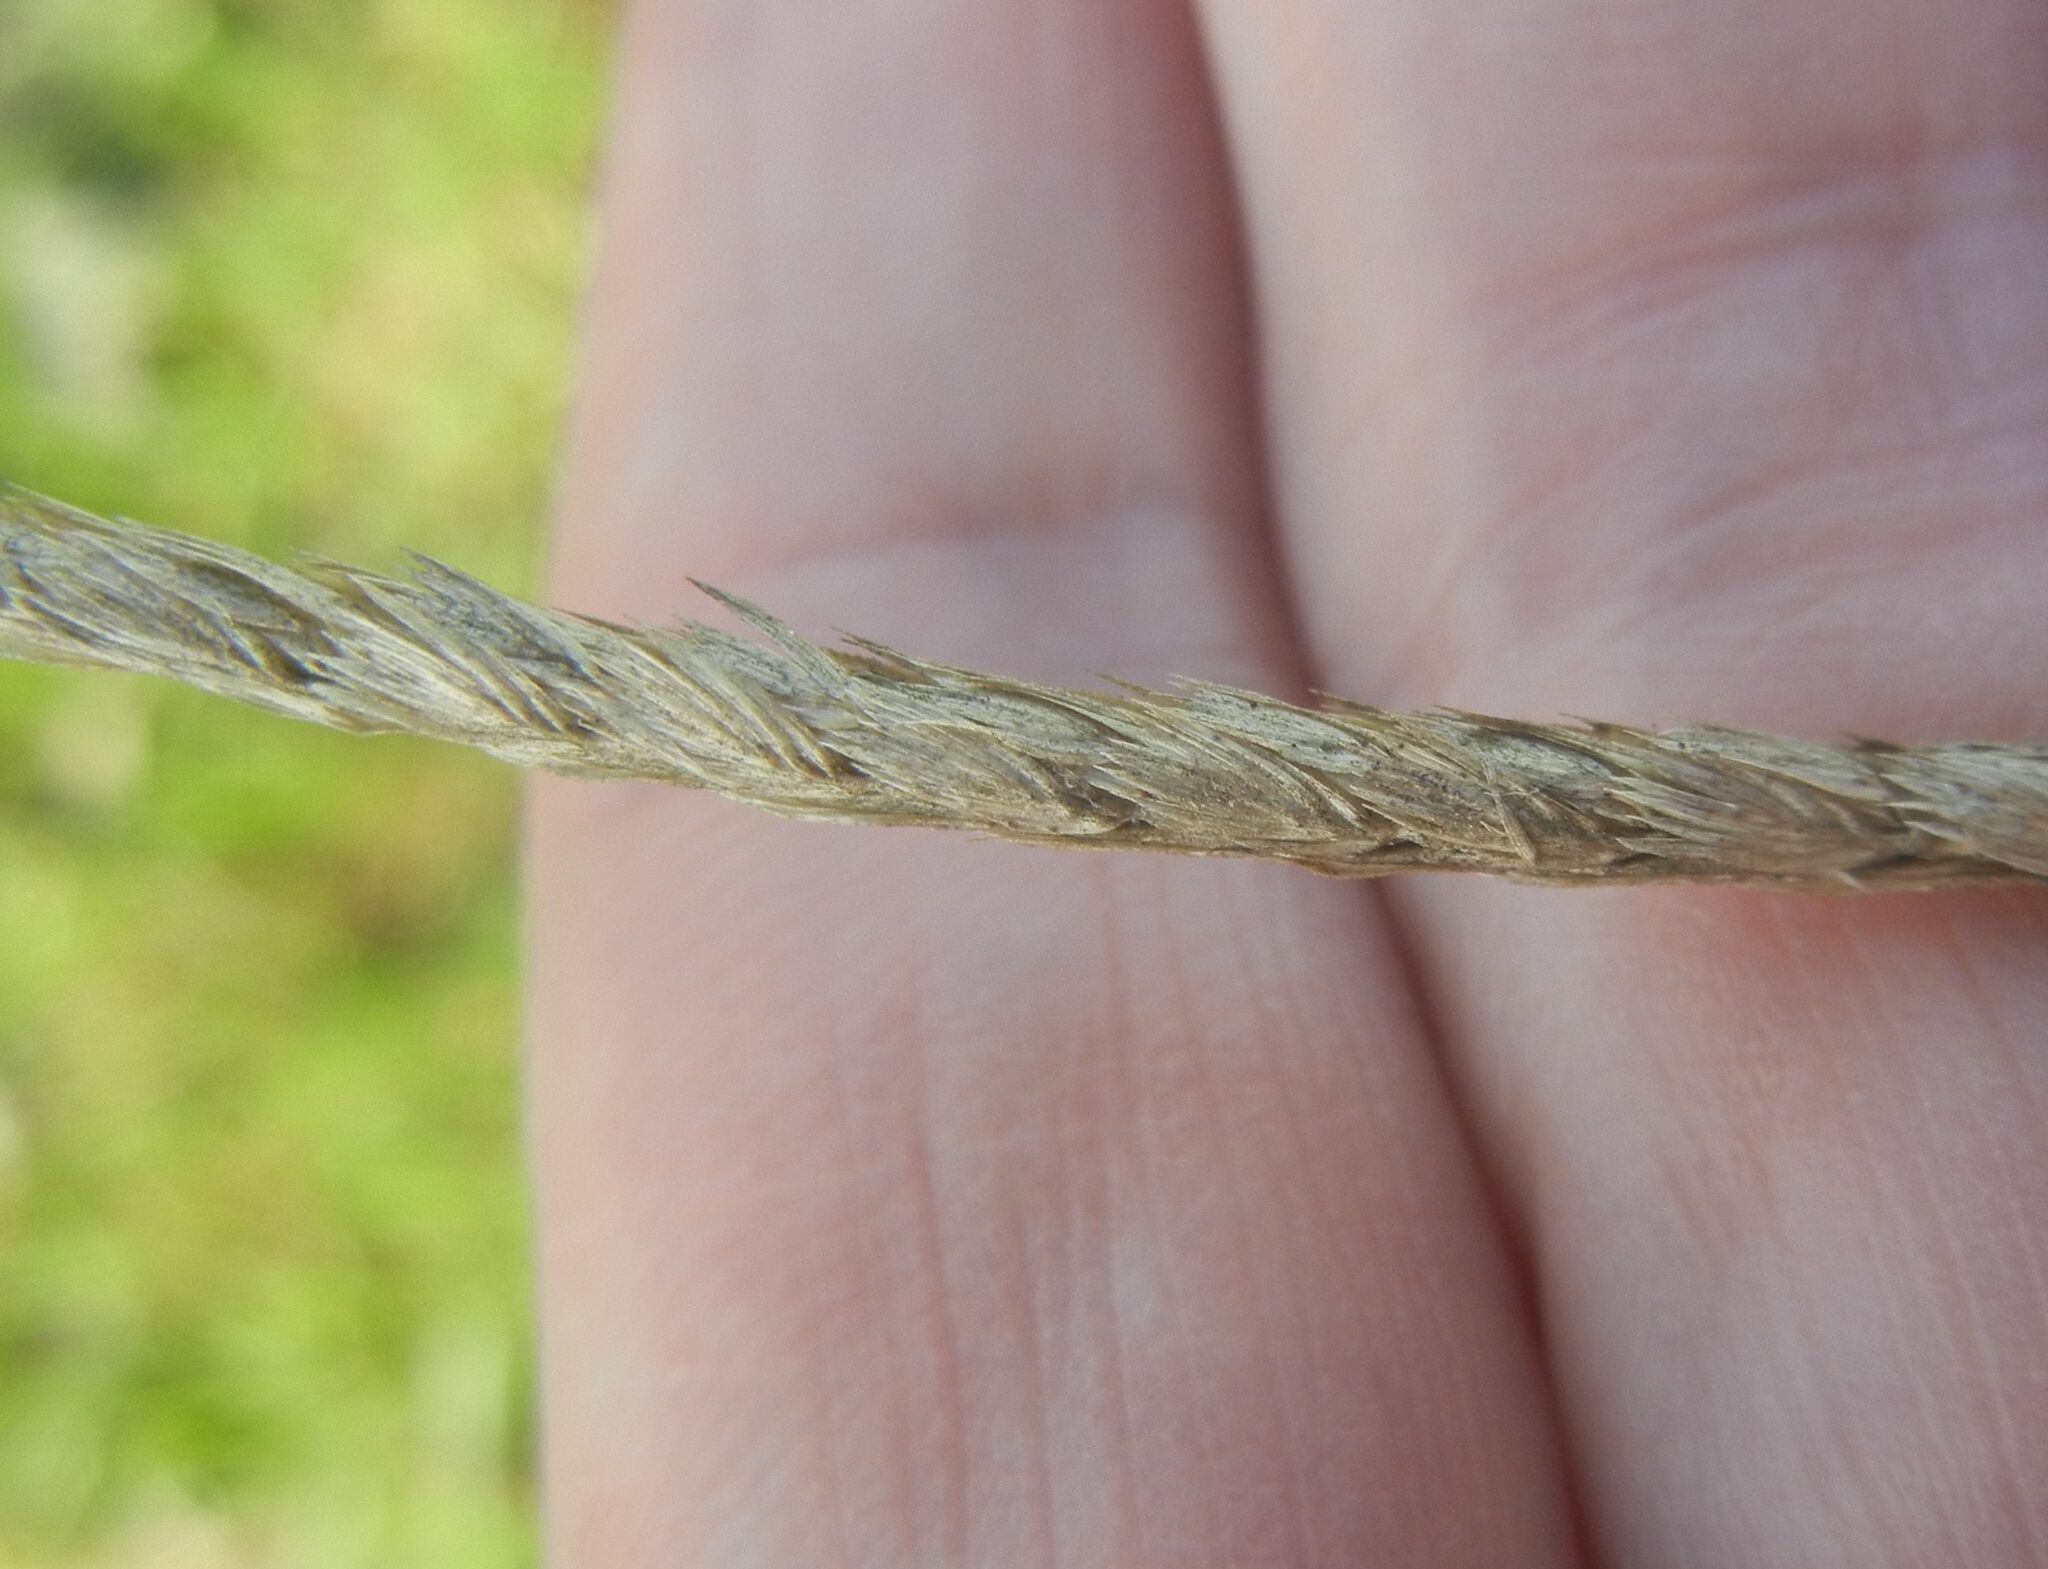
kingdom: Plantae
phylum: Tracheophyta
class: Liliopsida
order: Poales
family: Poaceae
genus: Cynosurus
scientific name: Cynosurus cristatus
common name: Crested dog's-tail
